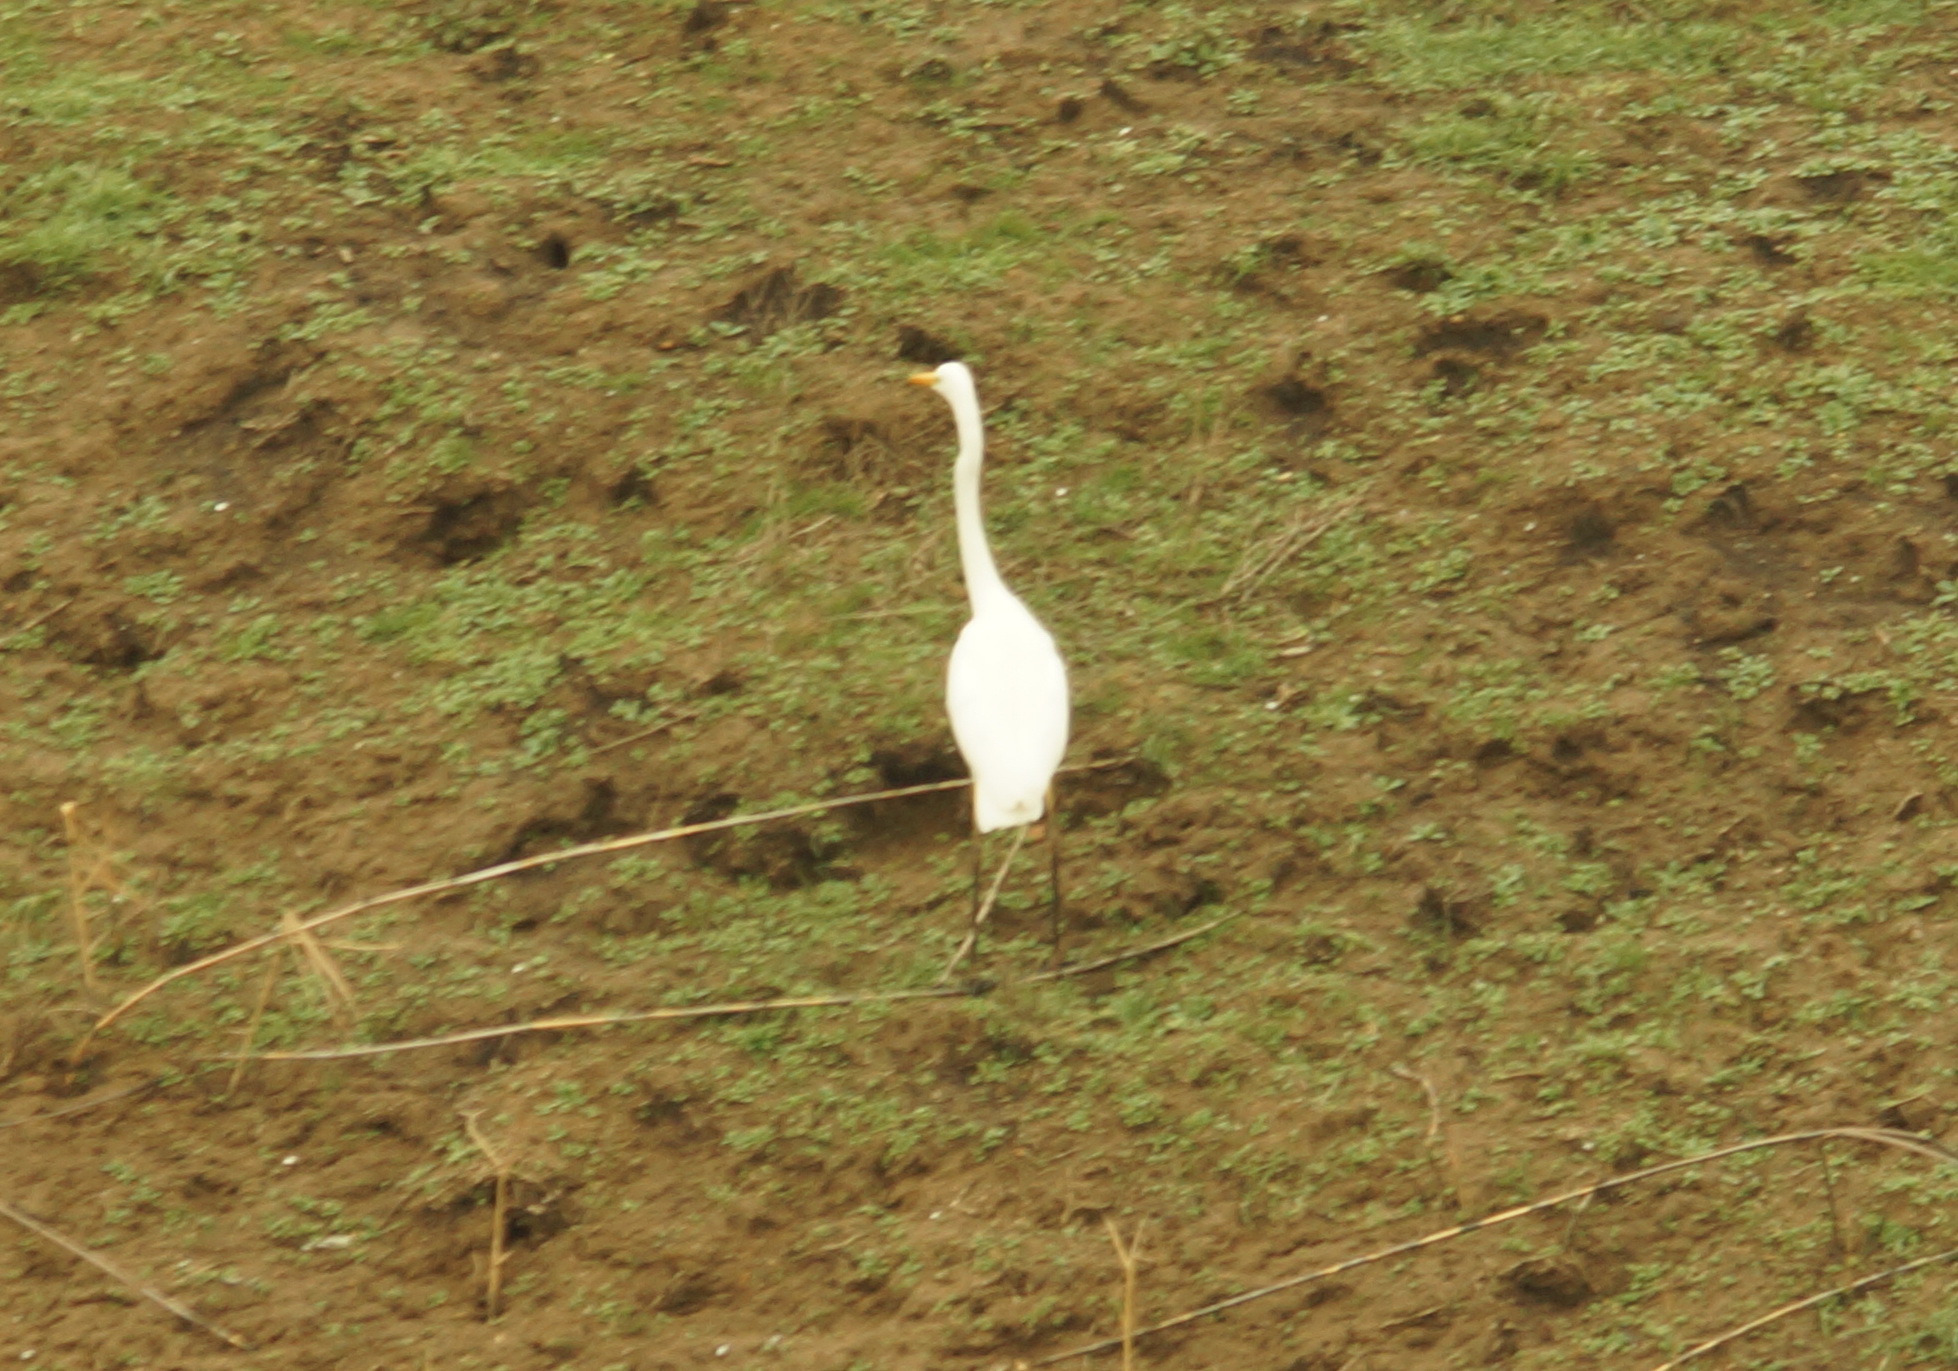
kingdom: Animalia
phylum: Chordata
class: Aves
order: Pelecaniformes
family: Ardeidae
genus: Ardea
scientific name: Ardea alba
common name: Great egret
